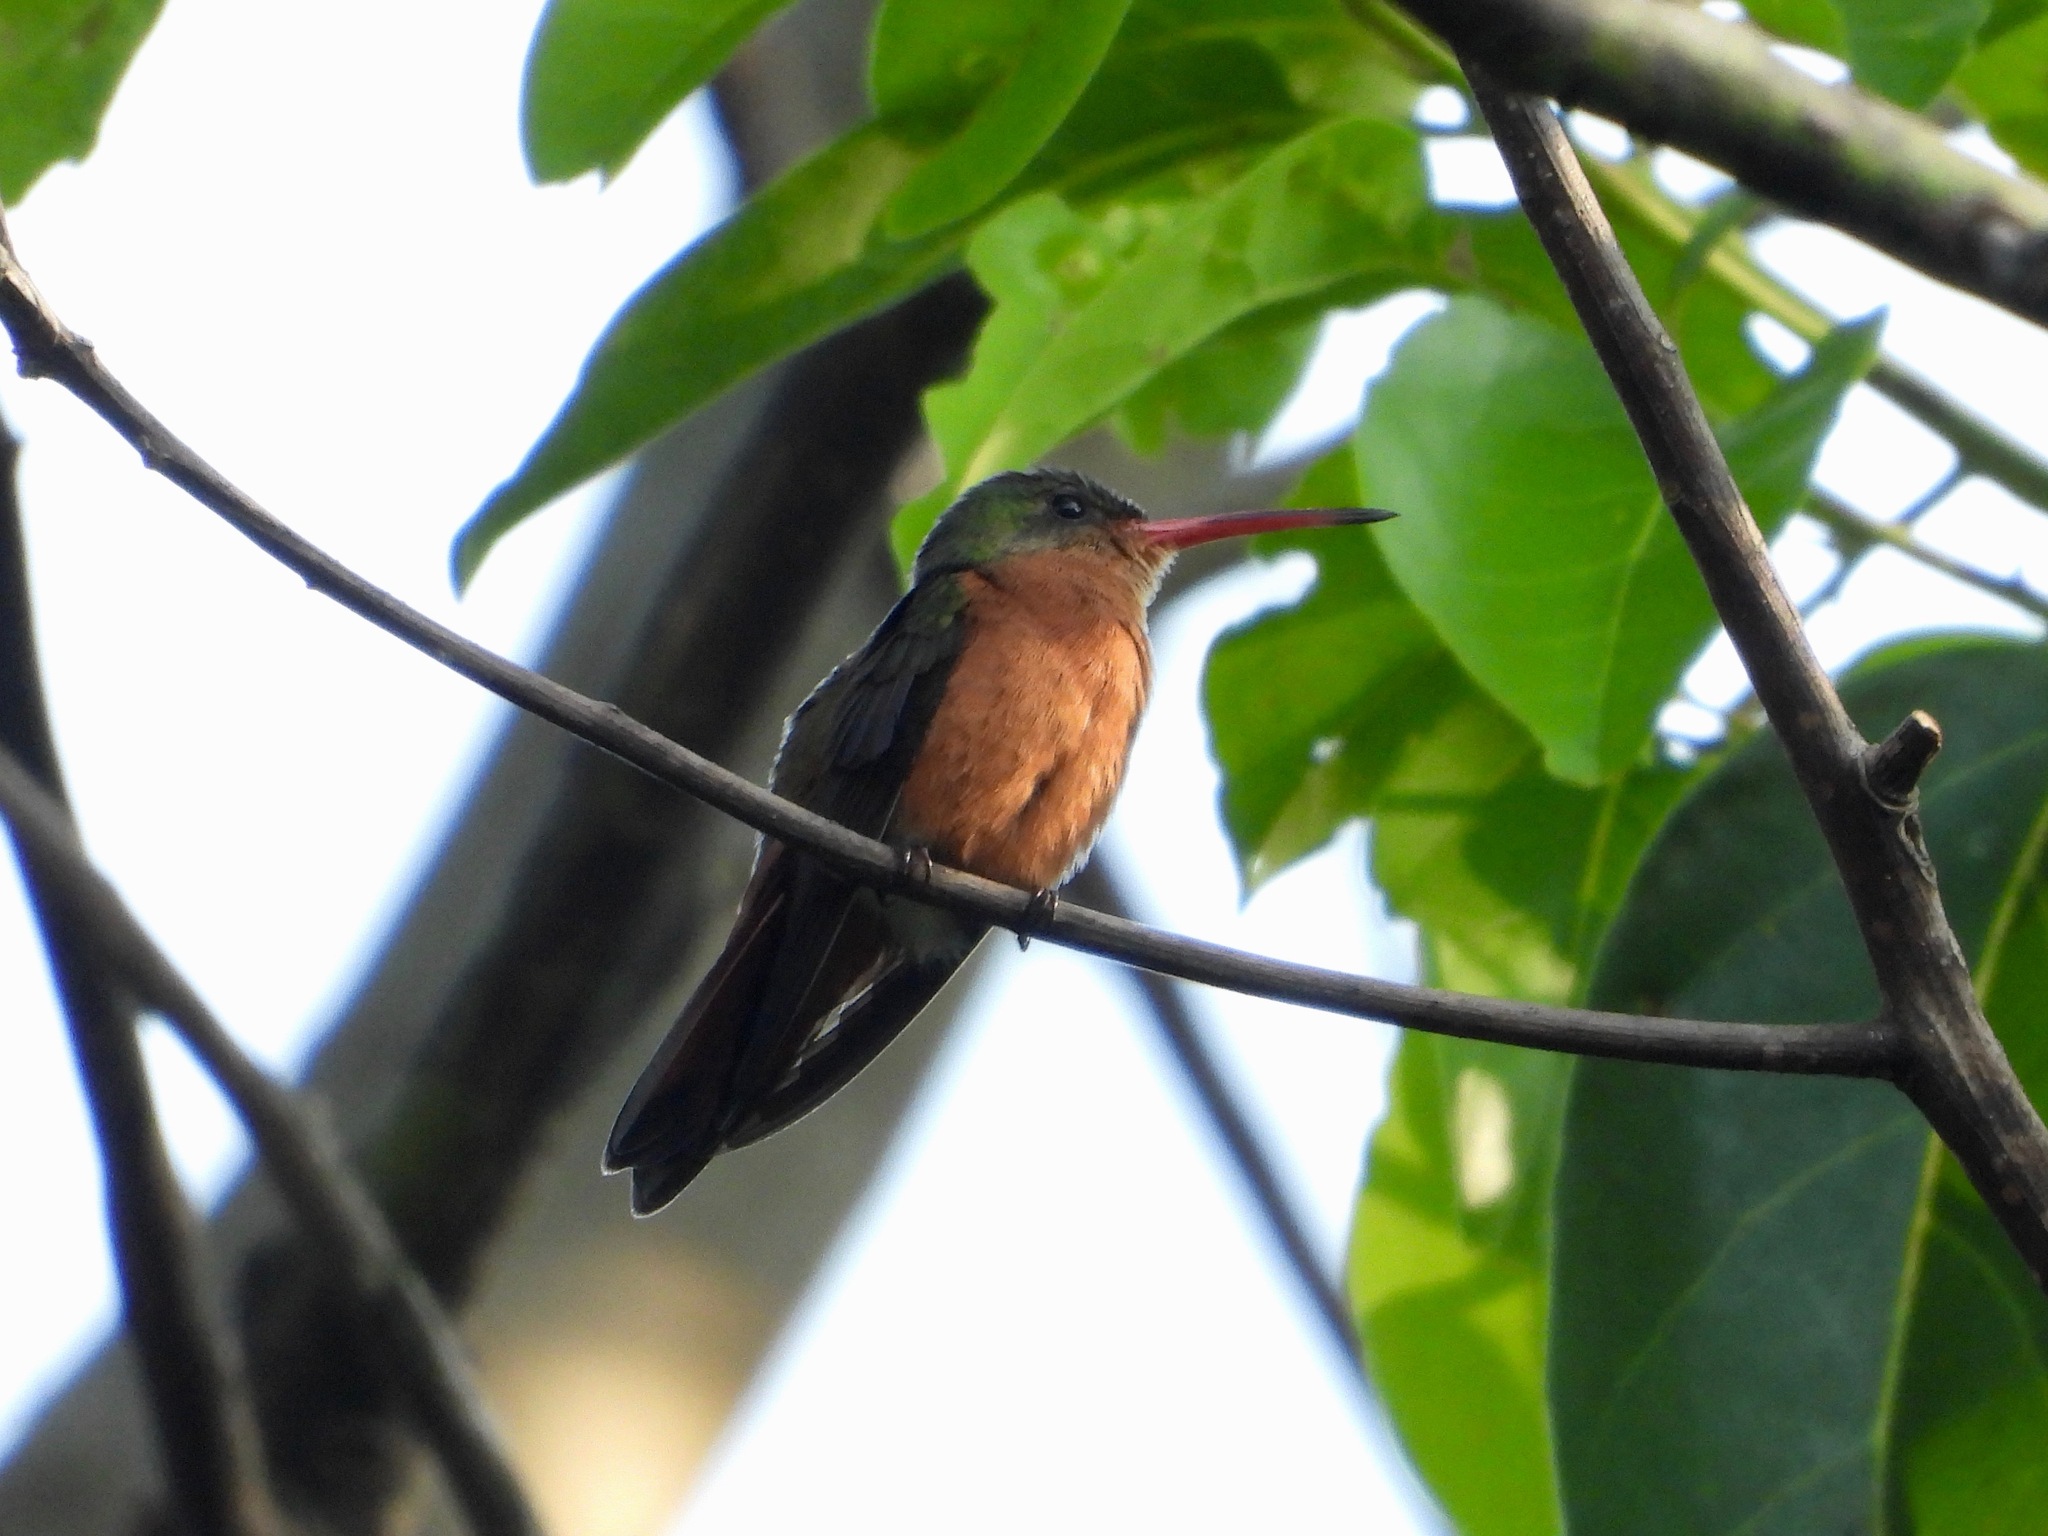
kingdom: Animalia
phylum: Chordata
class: Aves
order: Apodiformes
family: Trochilidae
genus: Amazilia
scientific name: Amazilia rutila
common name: Cinnamon hummingbird
